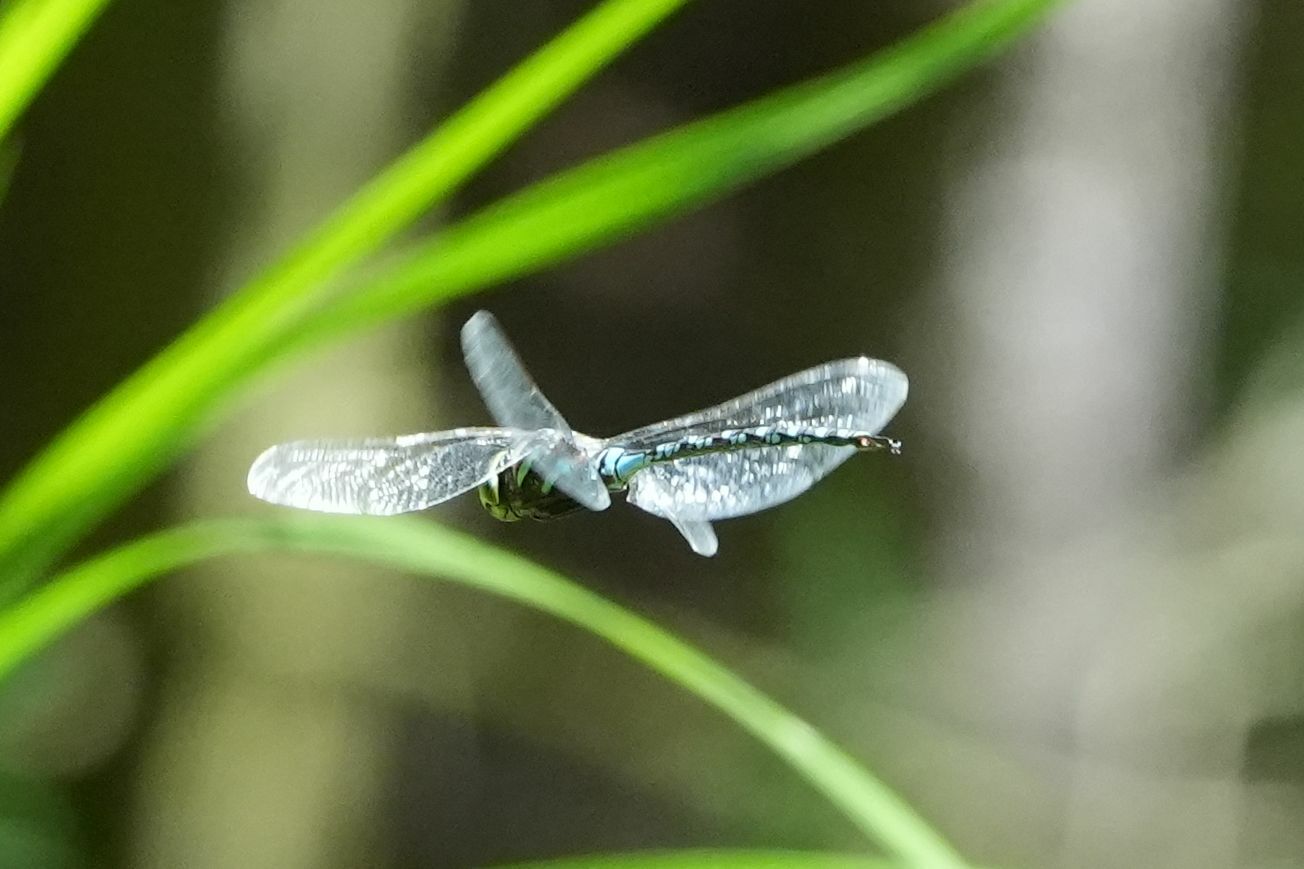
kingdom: Animalia
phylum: Arthropoda
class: Insecta
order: Odonata
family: Aeshnidae
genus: Aeshna
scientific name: Aeshna constricta
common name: Lance-tipped darner
